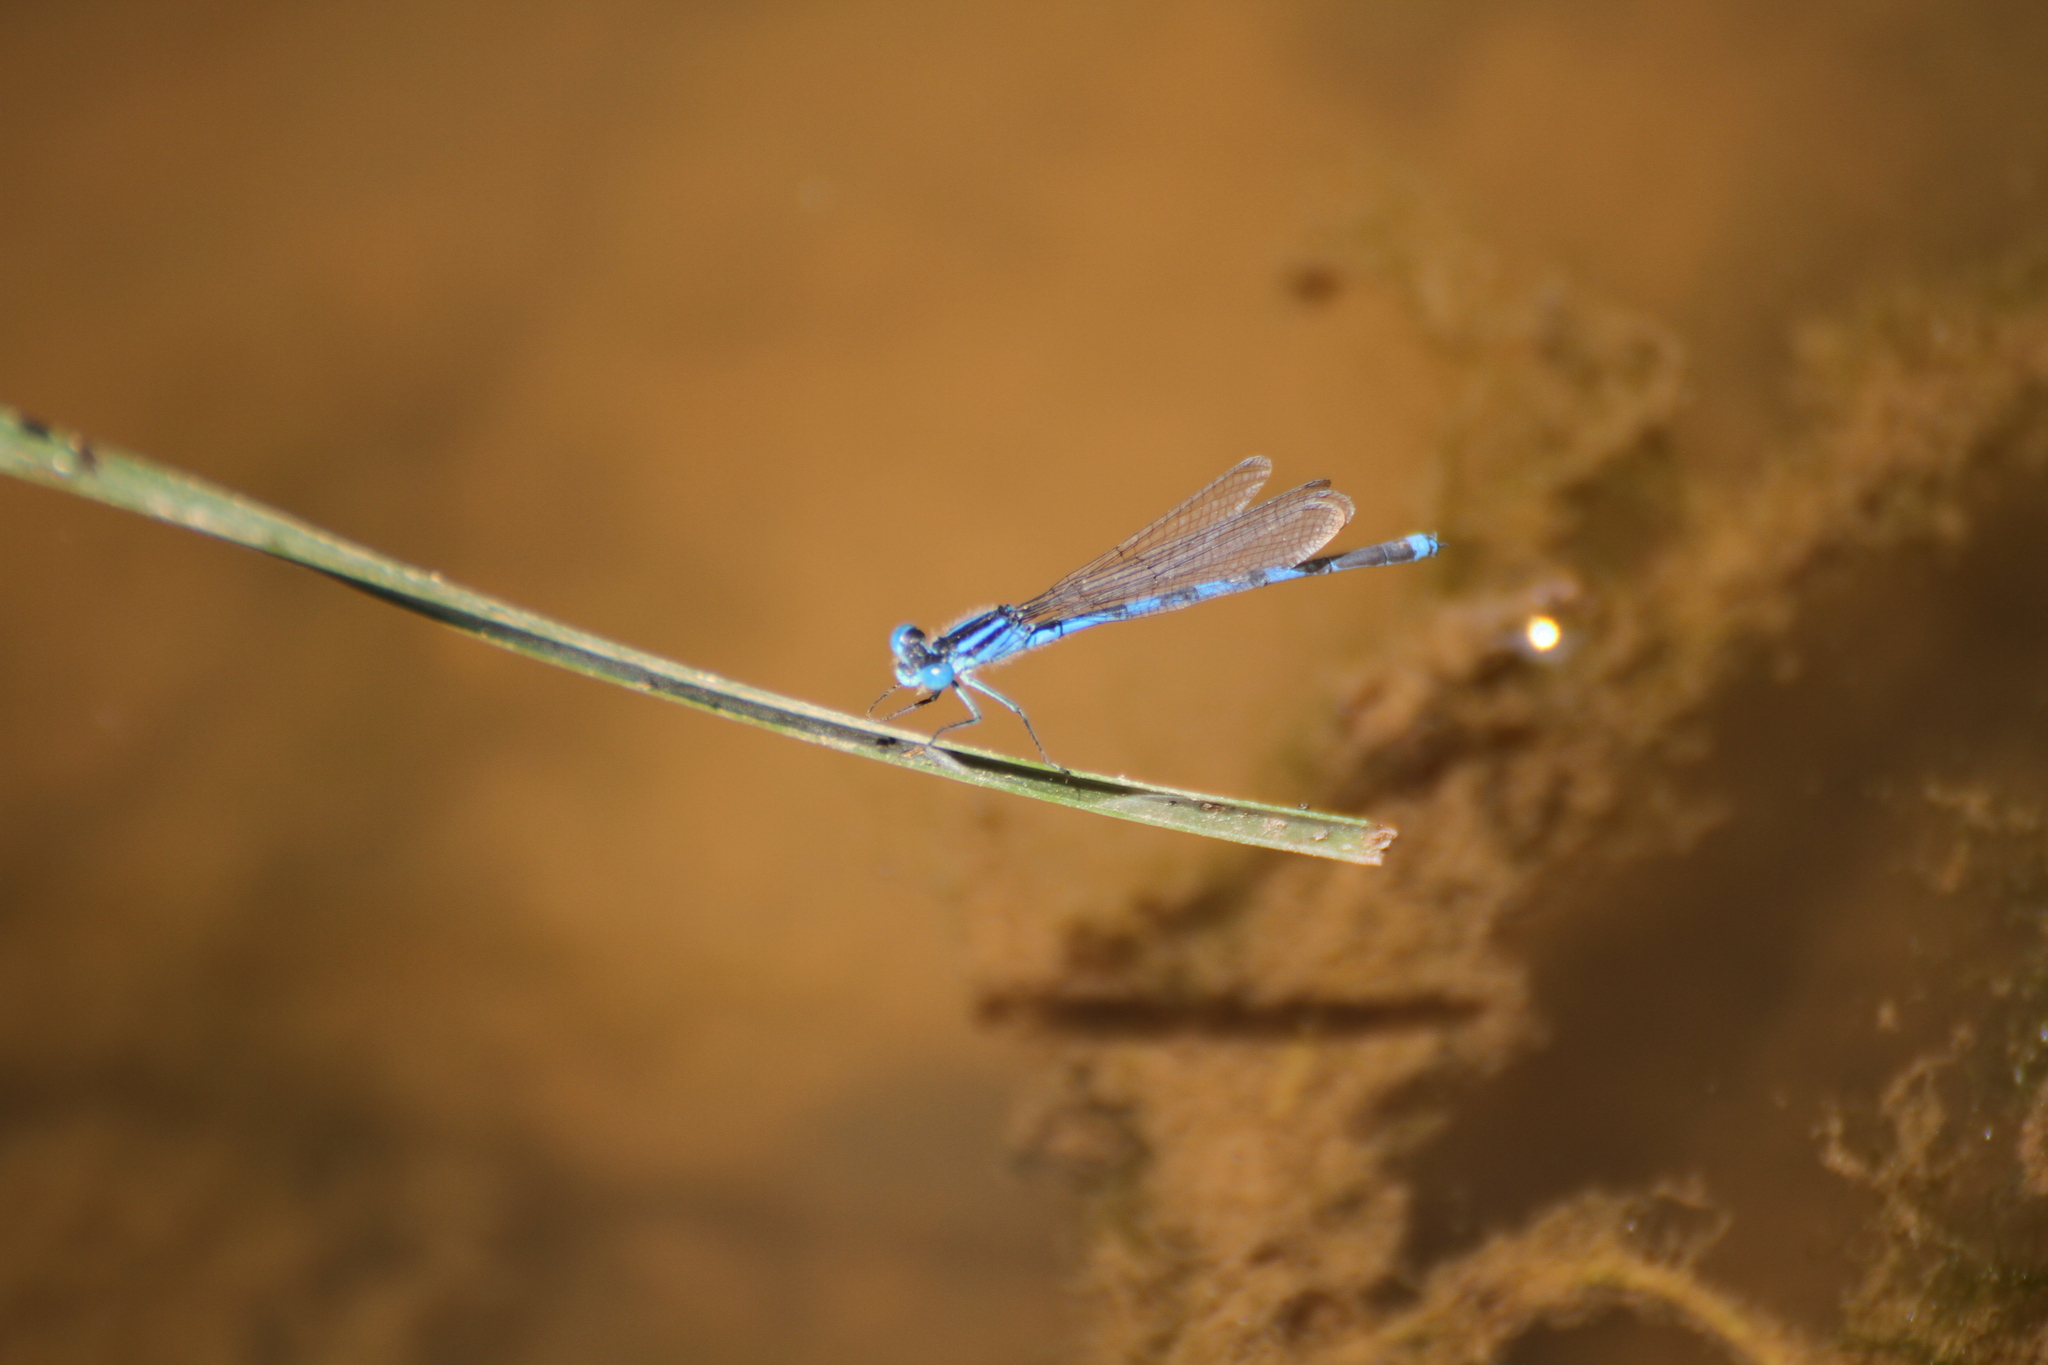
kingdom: Animalia
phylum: Arthropoda
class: Insecta
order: Odonata
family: Coenagrionidae
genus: Erythromma
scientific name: Erythromma lindenii
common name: Blue-eye
